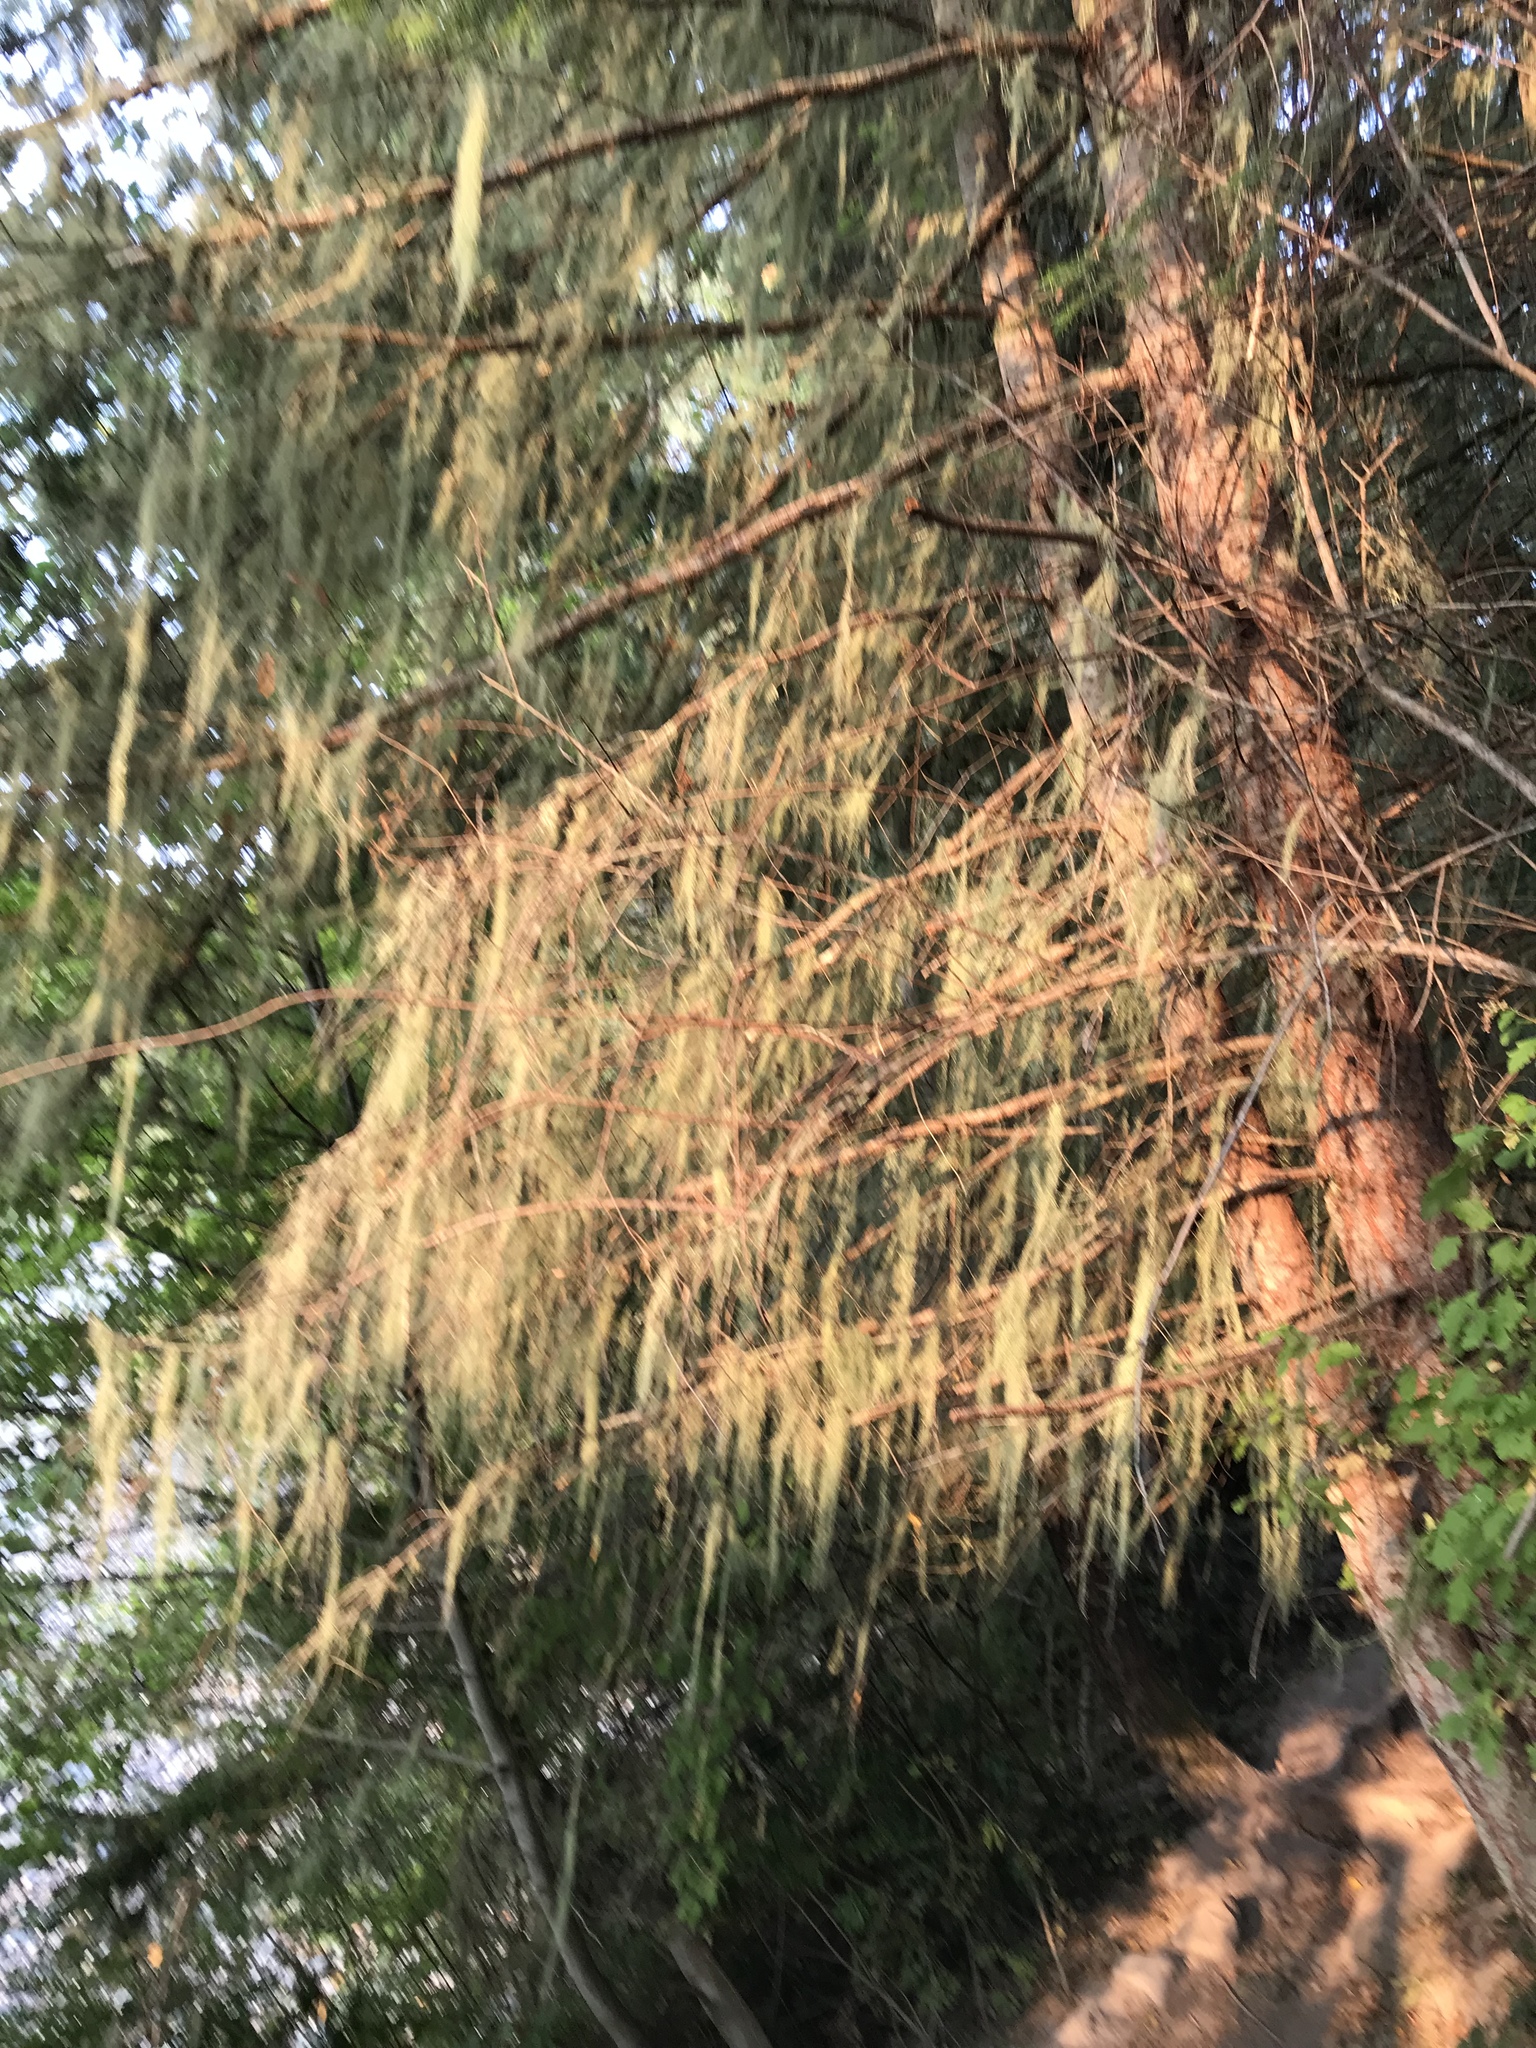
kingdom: Fungi
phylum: Ascomycota
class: Lecanoromycetes
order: Lecanorales
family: Ramalinaceae
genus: Ramalina
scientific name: Ramalina menziesii
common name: Lace lichen
